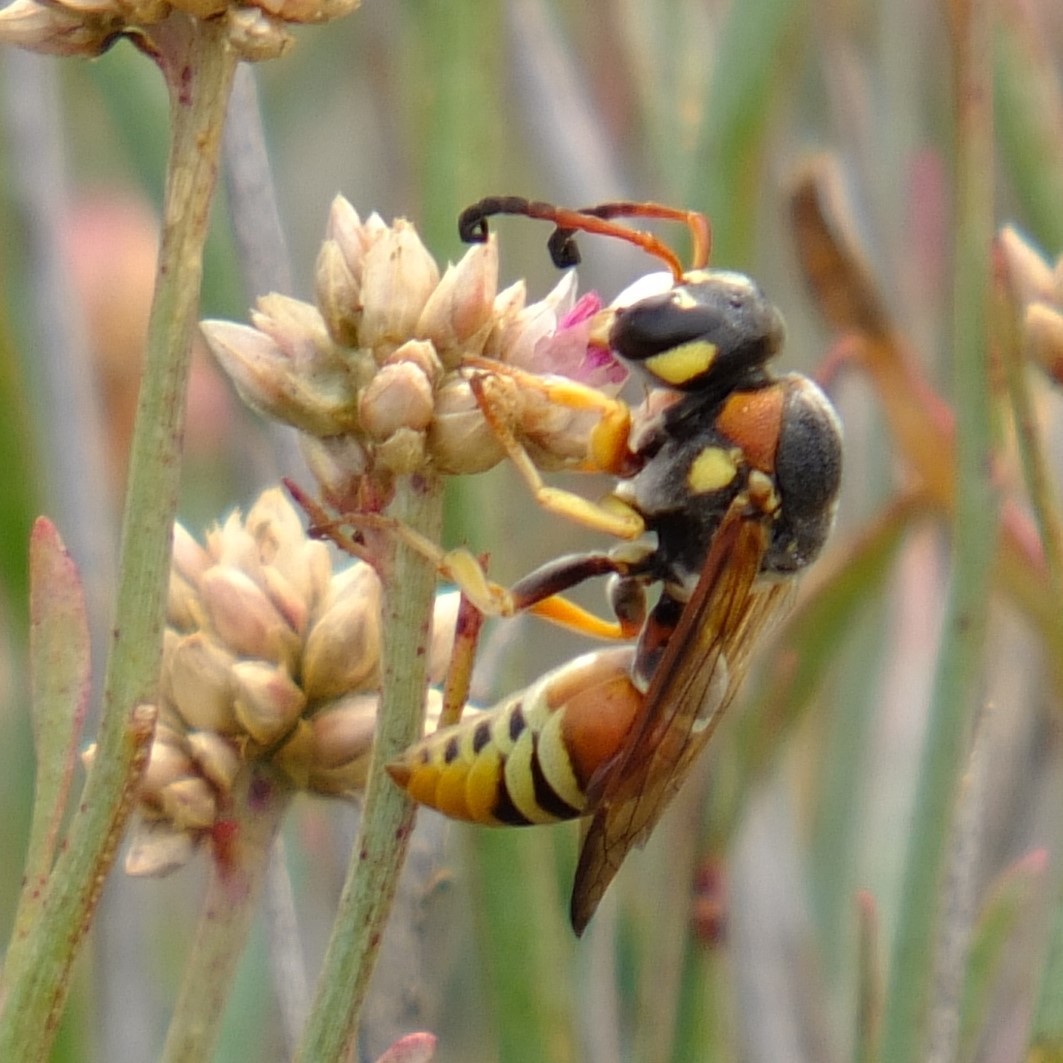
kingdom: Animalia
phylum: Arthropoda
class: Insecta
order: Hymenoptera
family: Eumenidae
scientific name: Eumenidae
